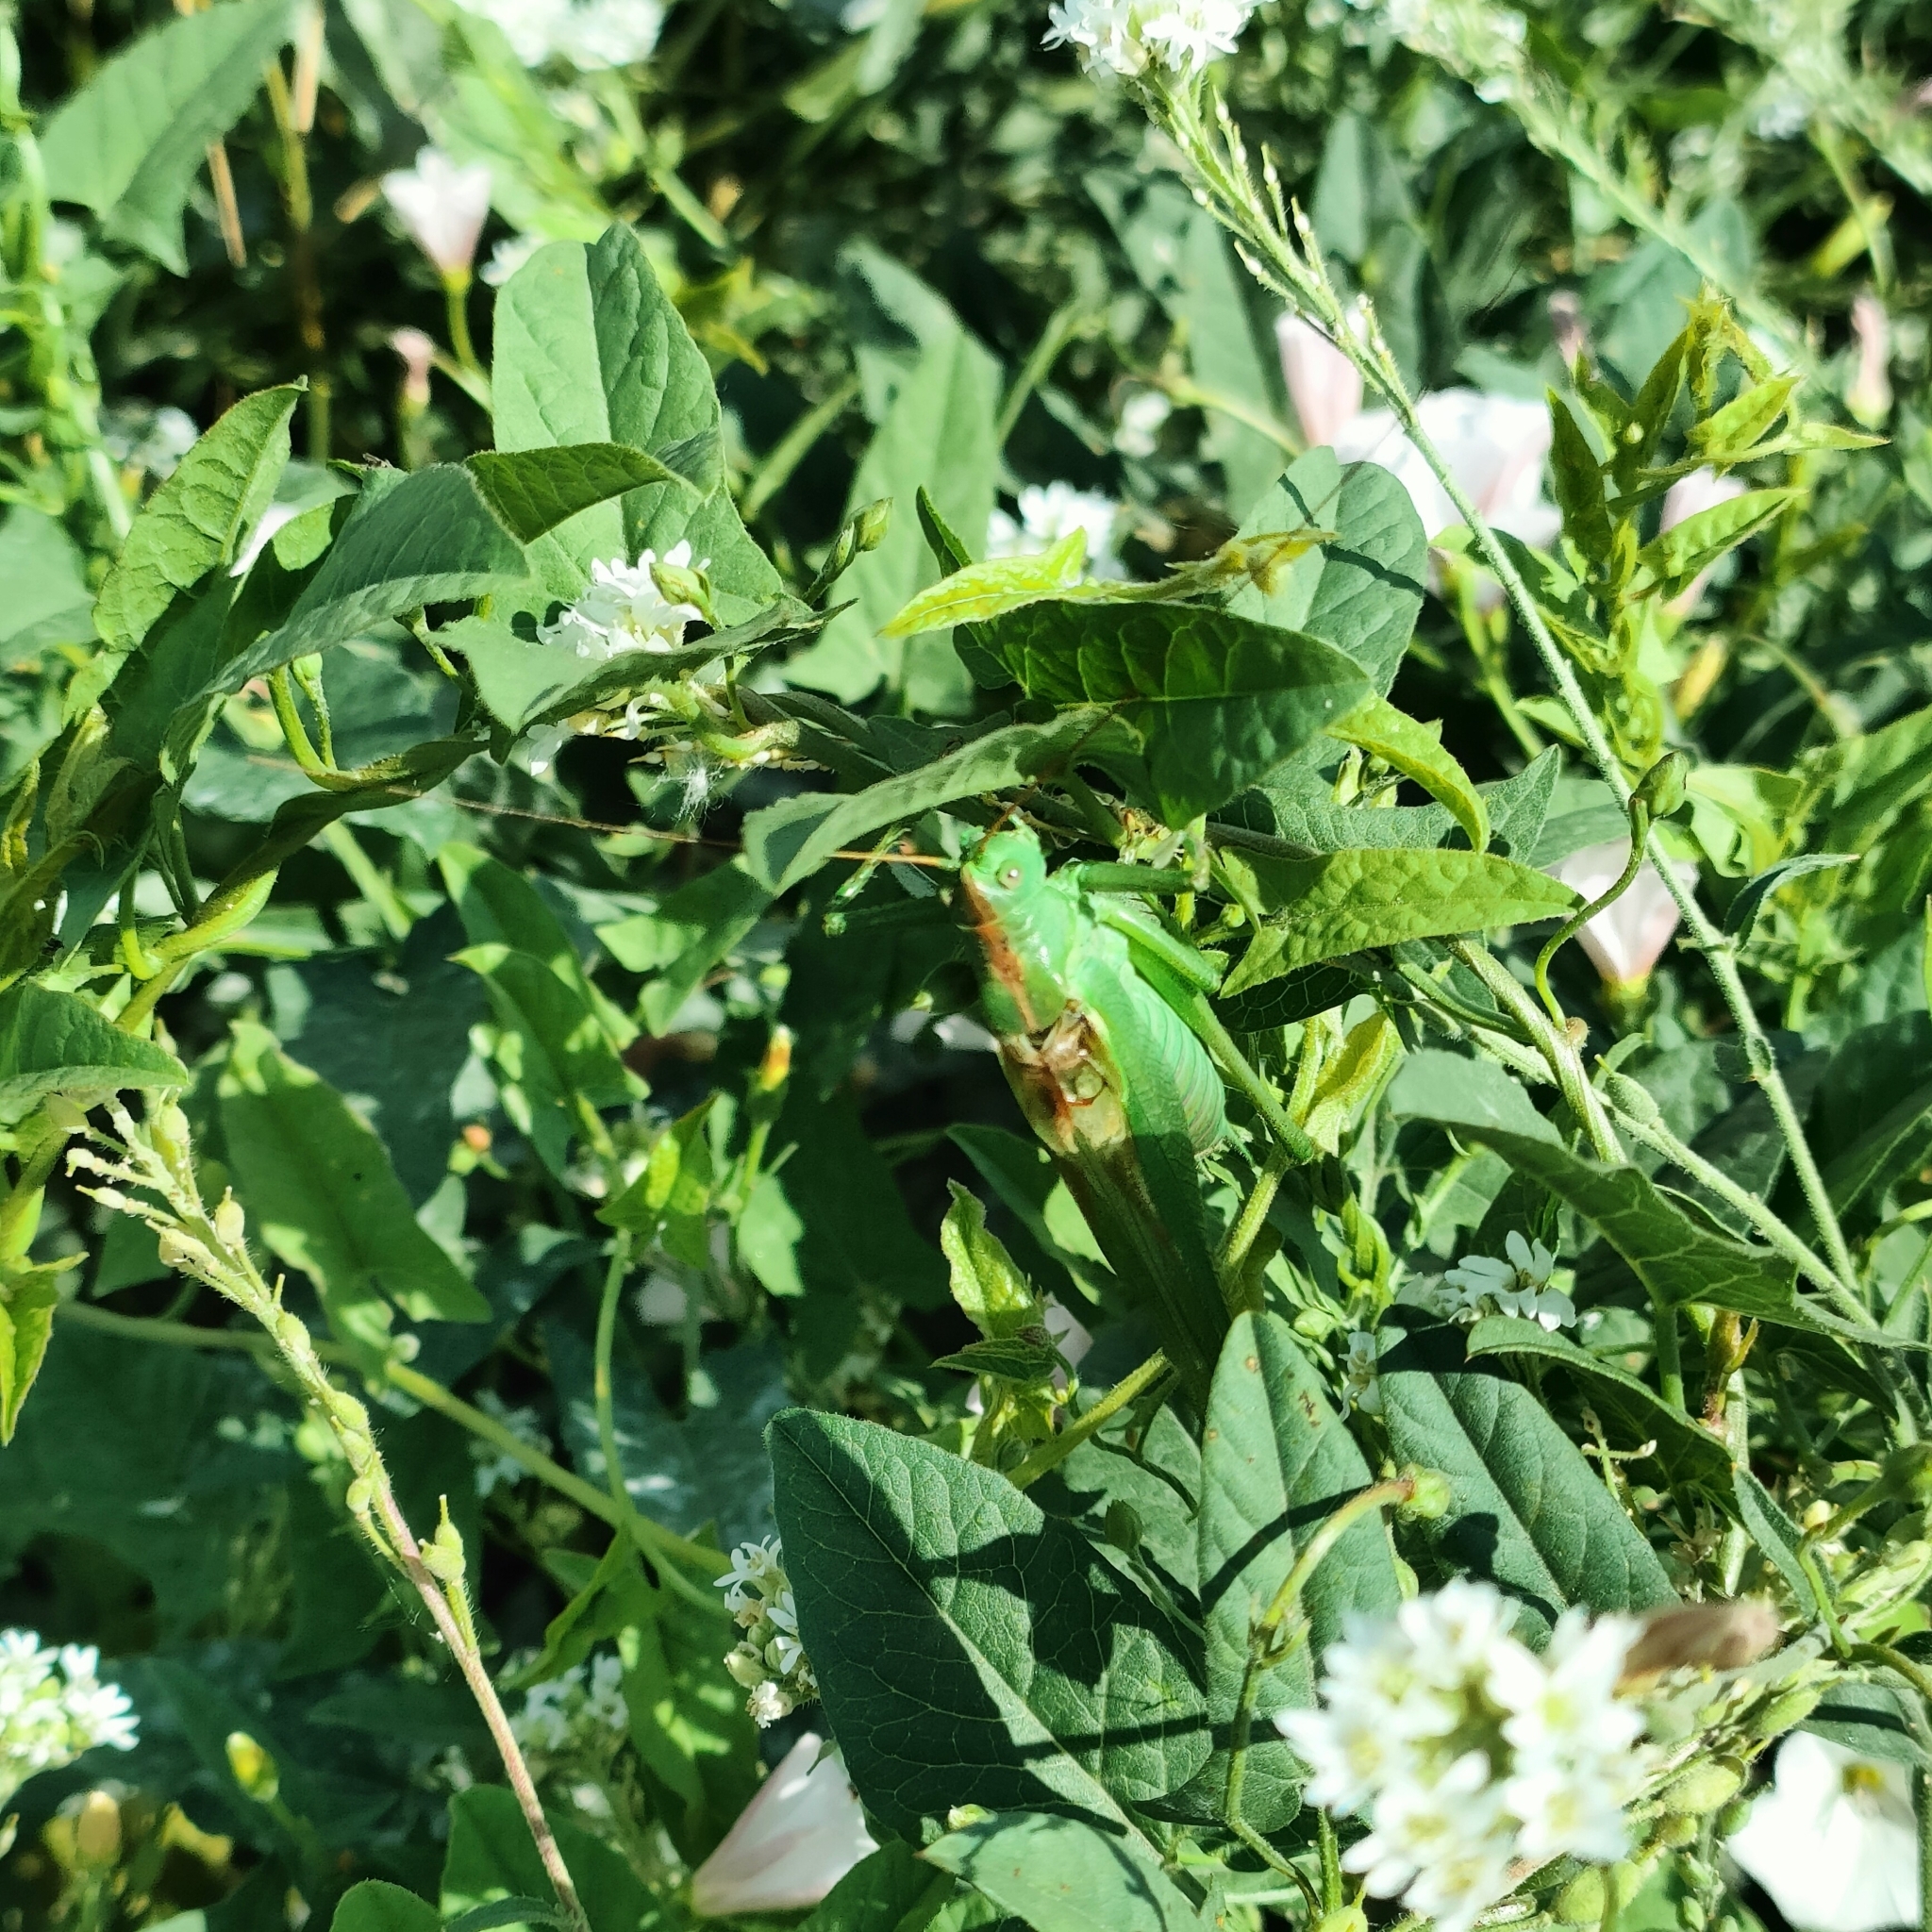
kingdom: Animalia
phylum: Arthropoda
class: Insecta
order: Orthoptera
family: Tettigoniidae
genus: Tettigonia
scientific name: Tettigonia viridissima
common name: Great green bush-cricket
